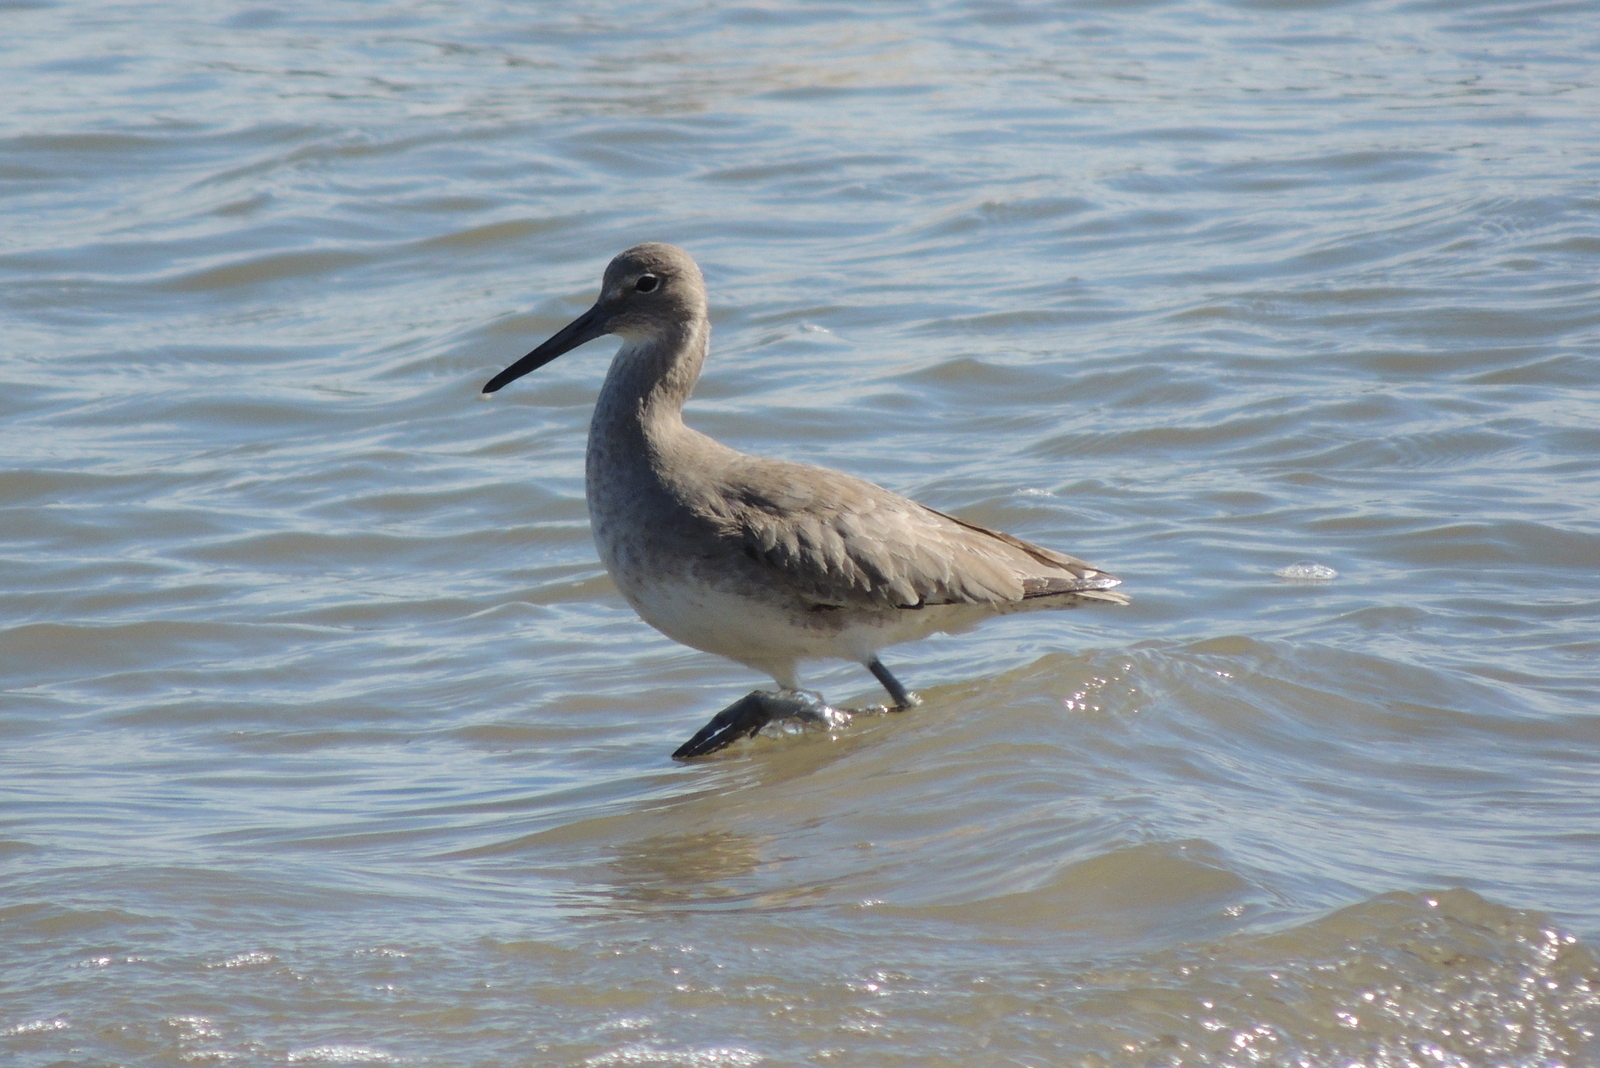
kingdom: Animalia
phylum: Chordata
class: Aves
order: Charadriiformes
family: Scolopacidae
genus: Tringa
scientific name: Tringa semipalmata
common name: Willet
